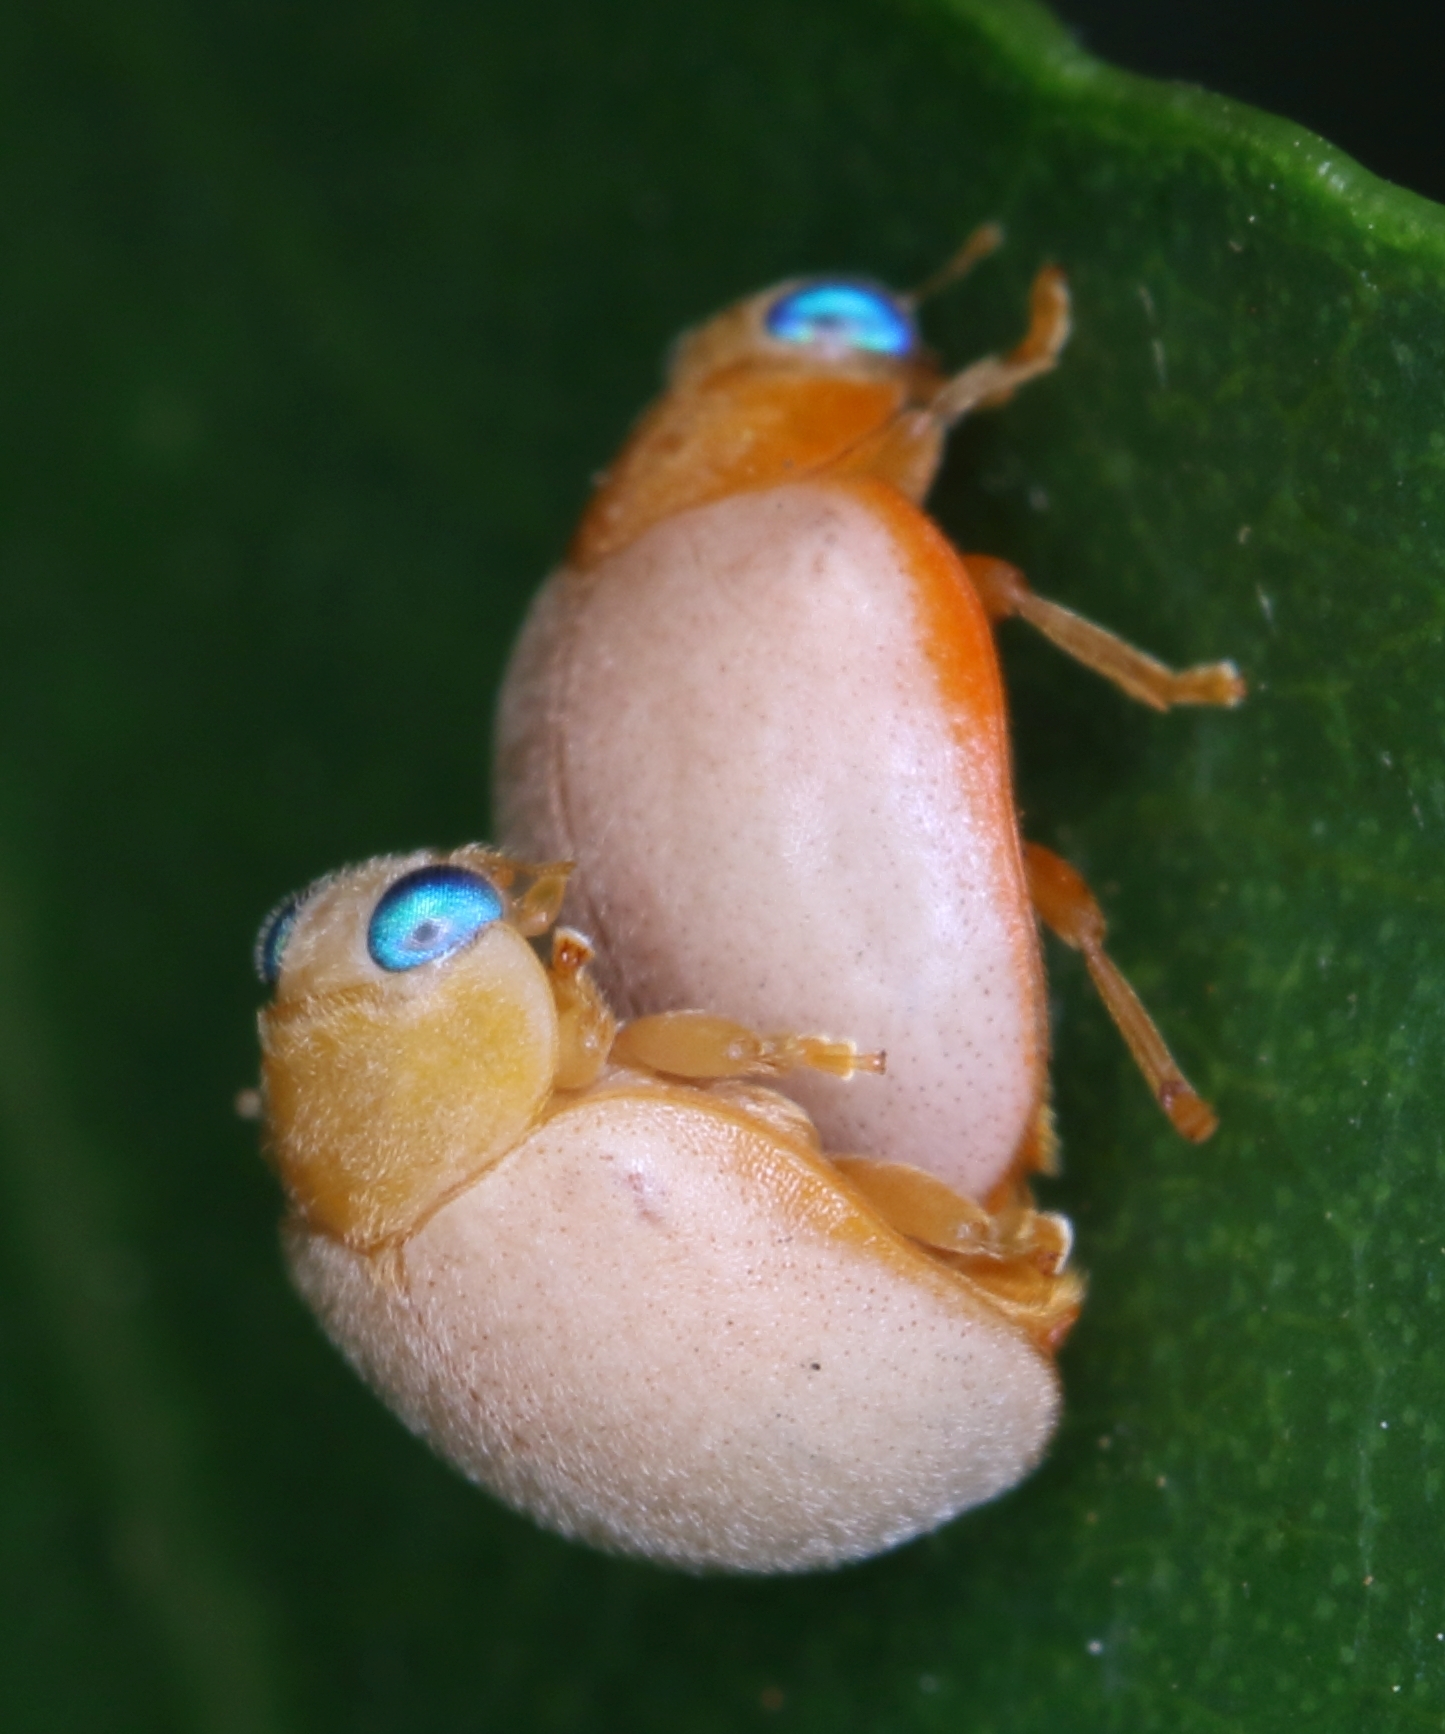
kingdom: Animalia
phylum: Arthropoda
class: Insecta
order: Coleoptera
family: Coccinellidae
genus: Ortalia
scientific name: Ortalia
